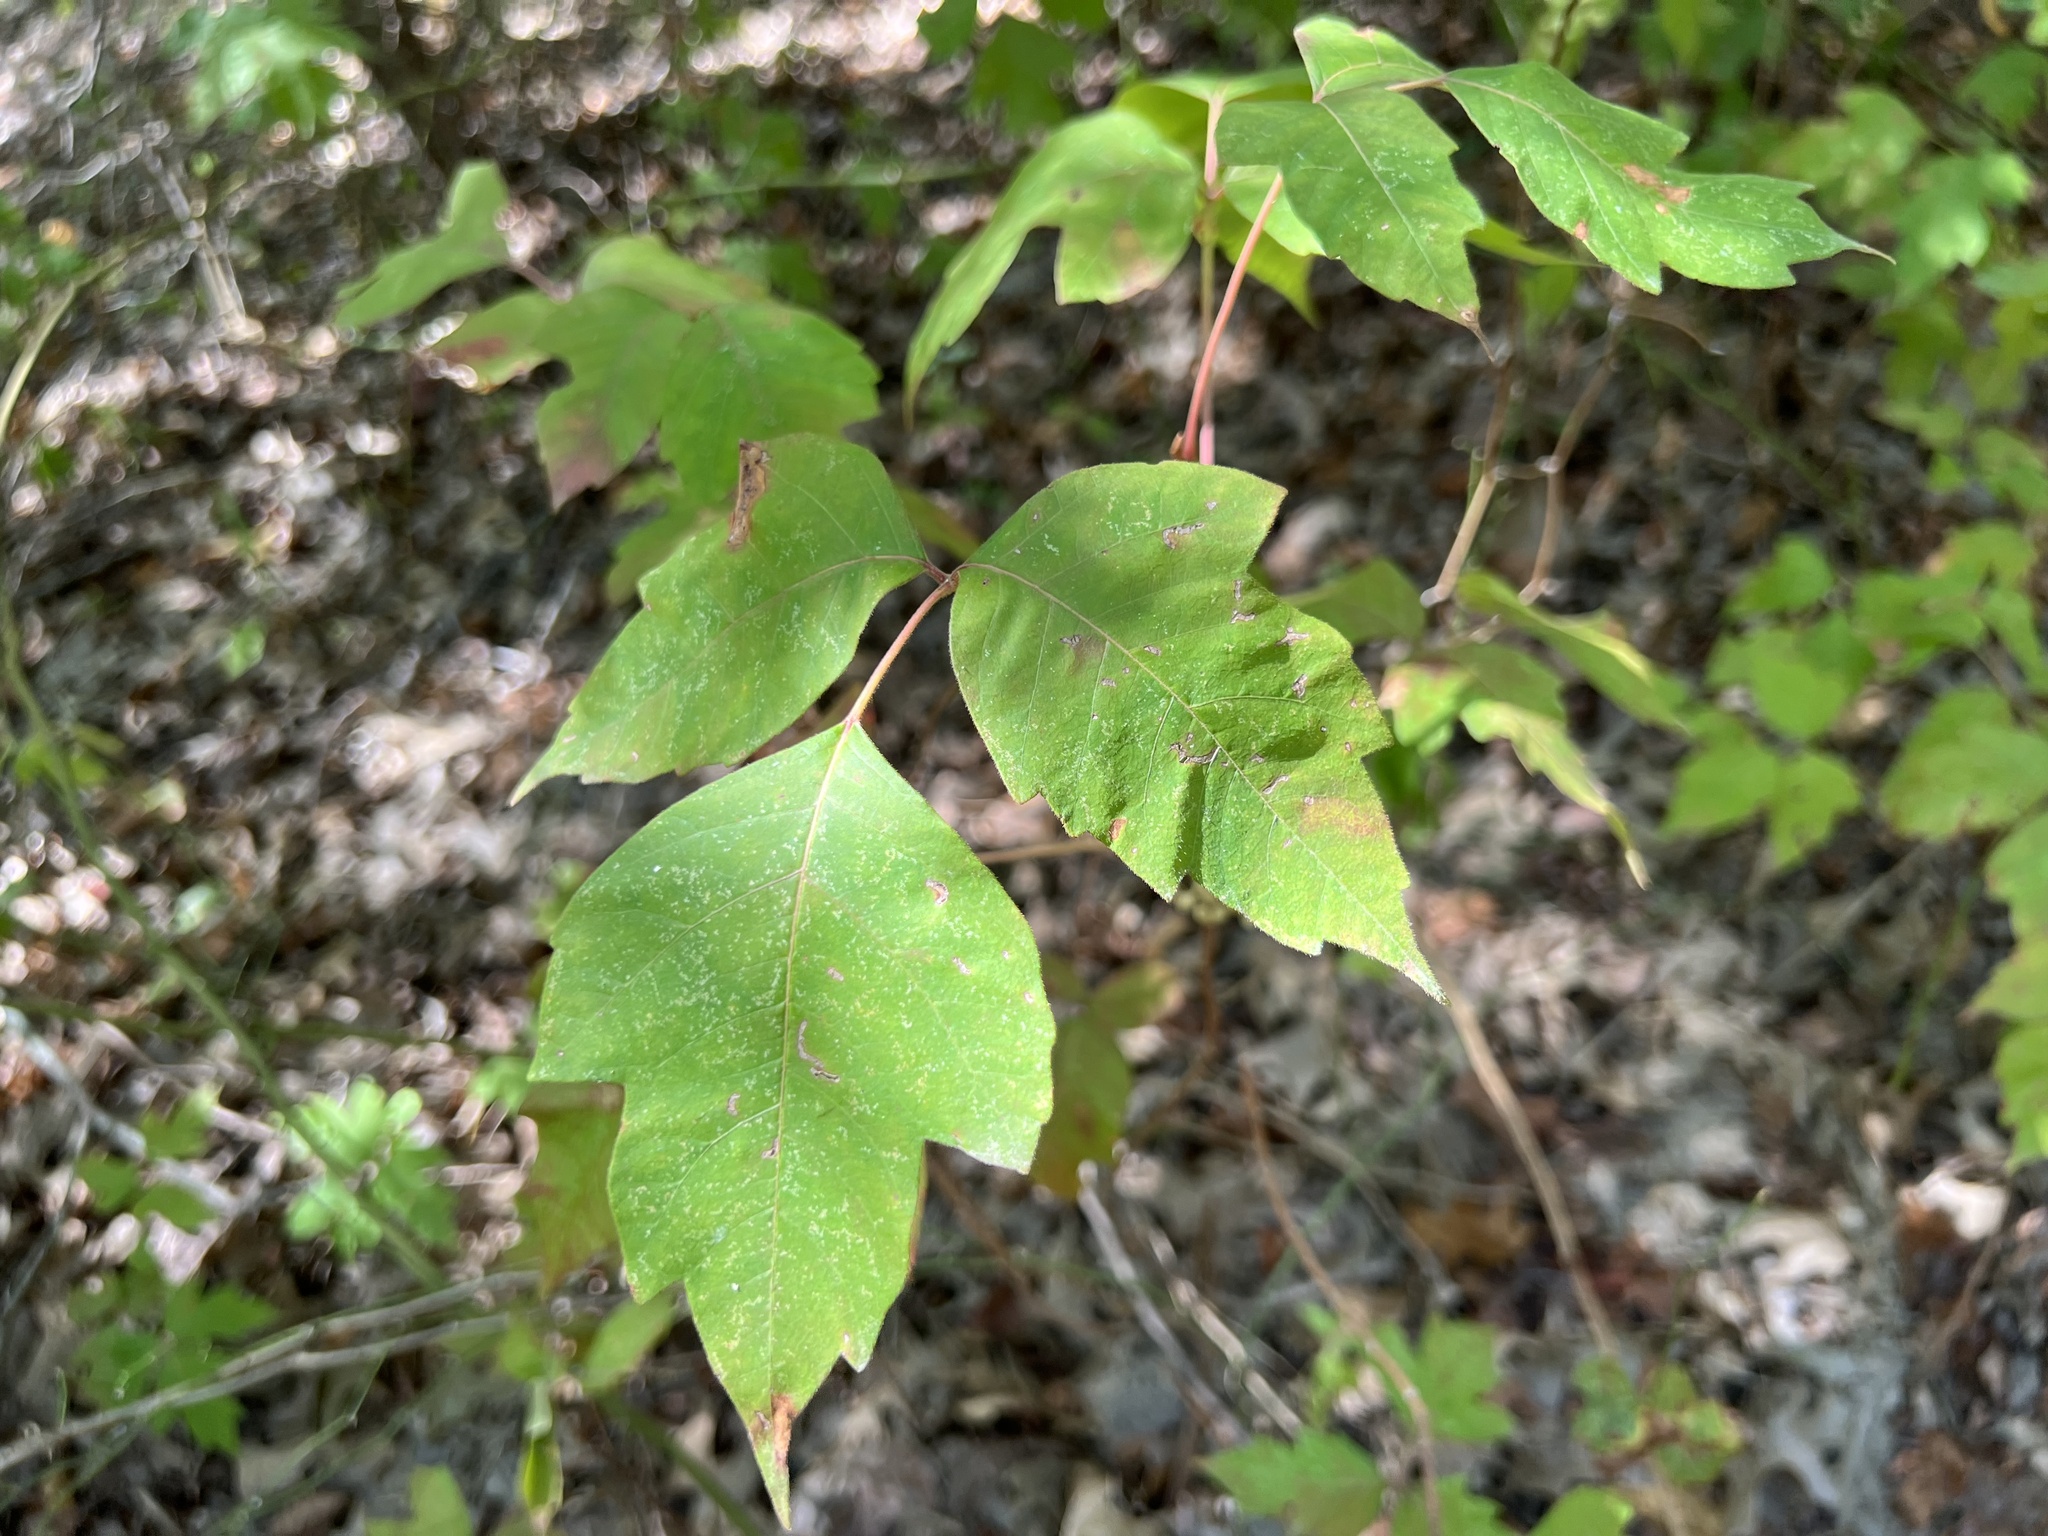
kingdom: Plantae
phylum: Tracheophyta
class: Magnoliopsida
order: Sapindales
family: Anacardiaceae
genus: Toxicodendron
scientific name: Toxicodendron radicans
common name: Poison ivy
